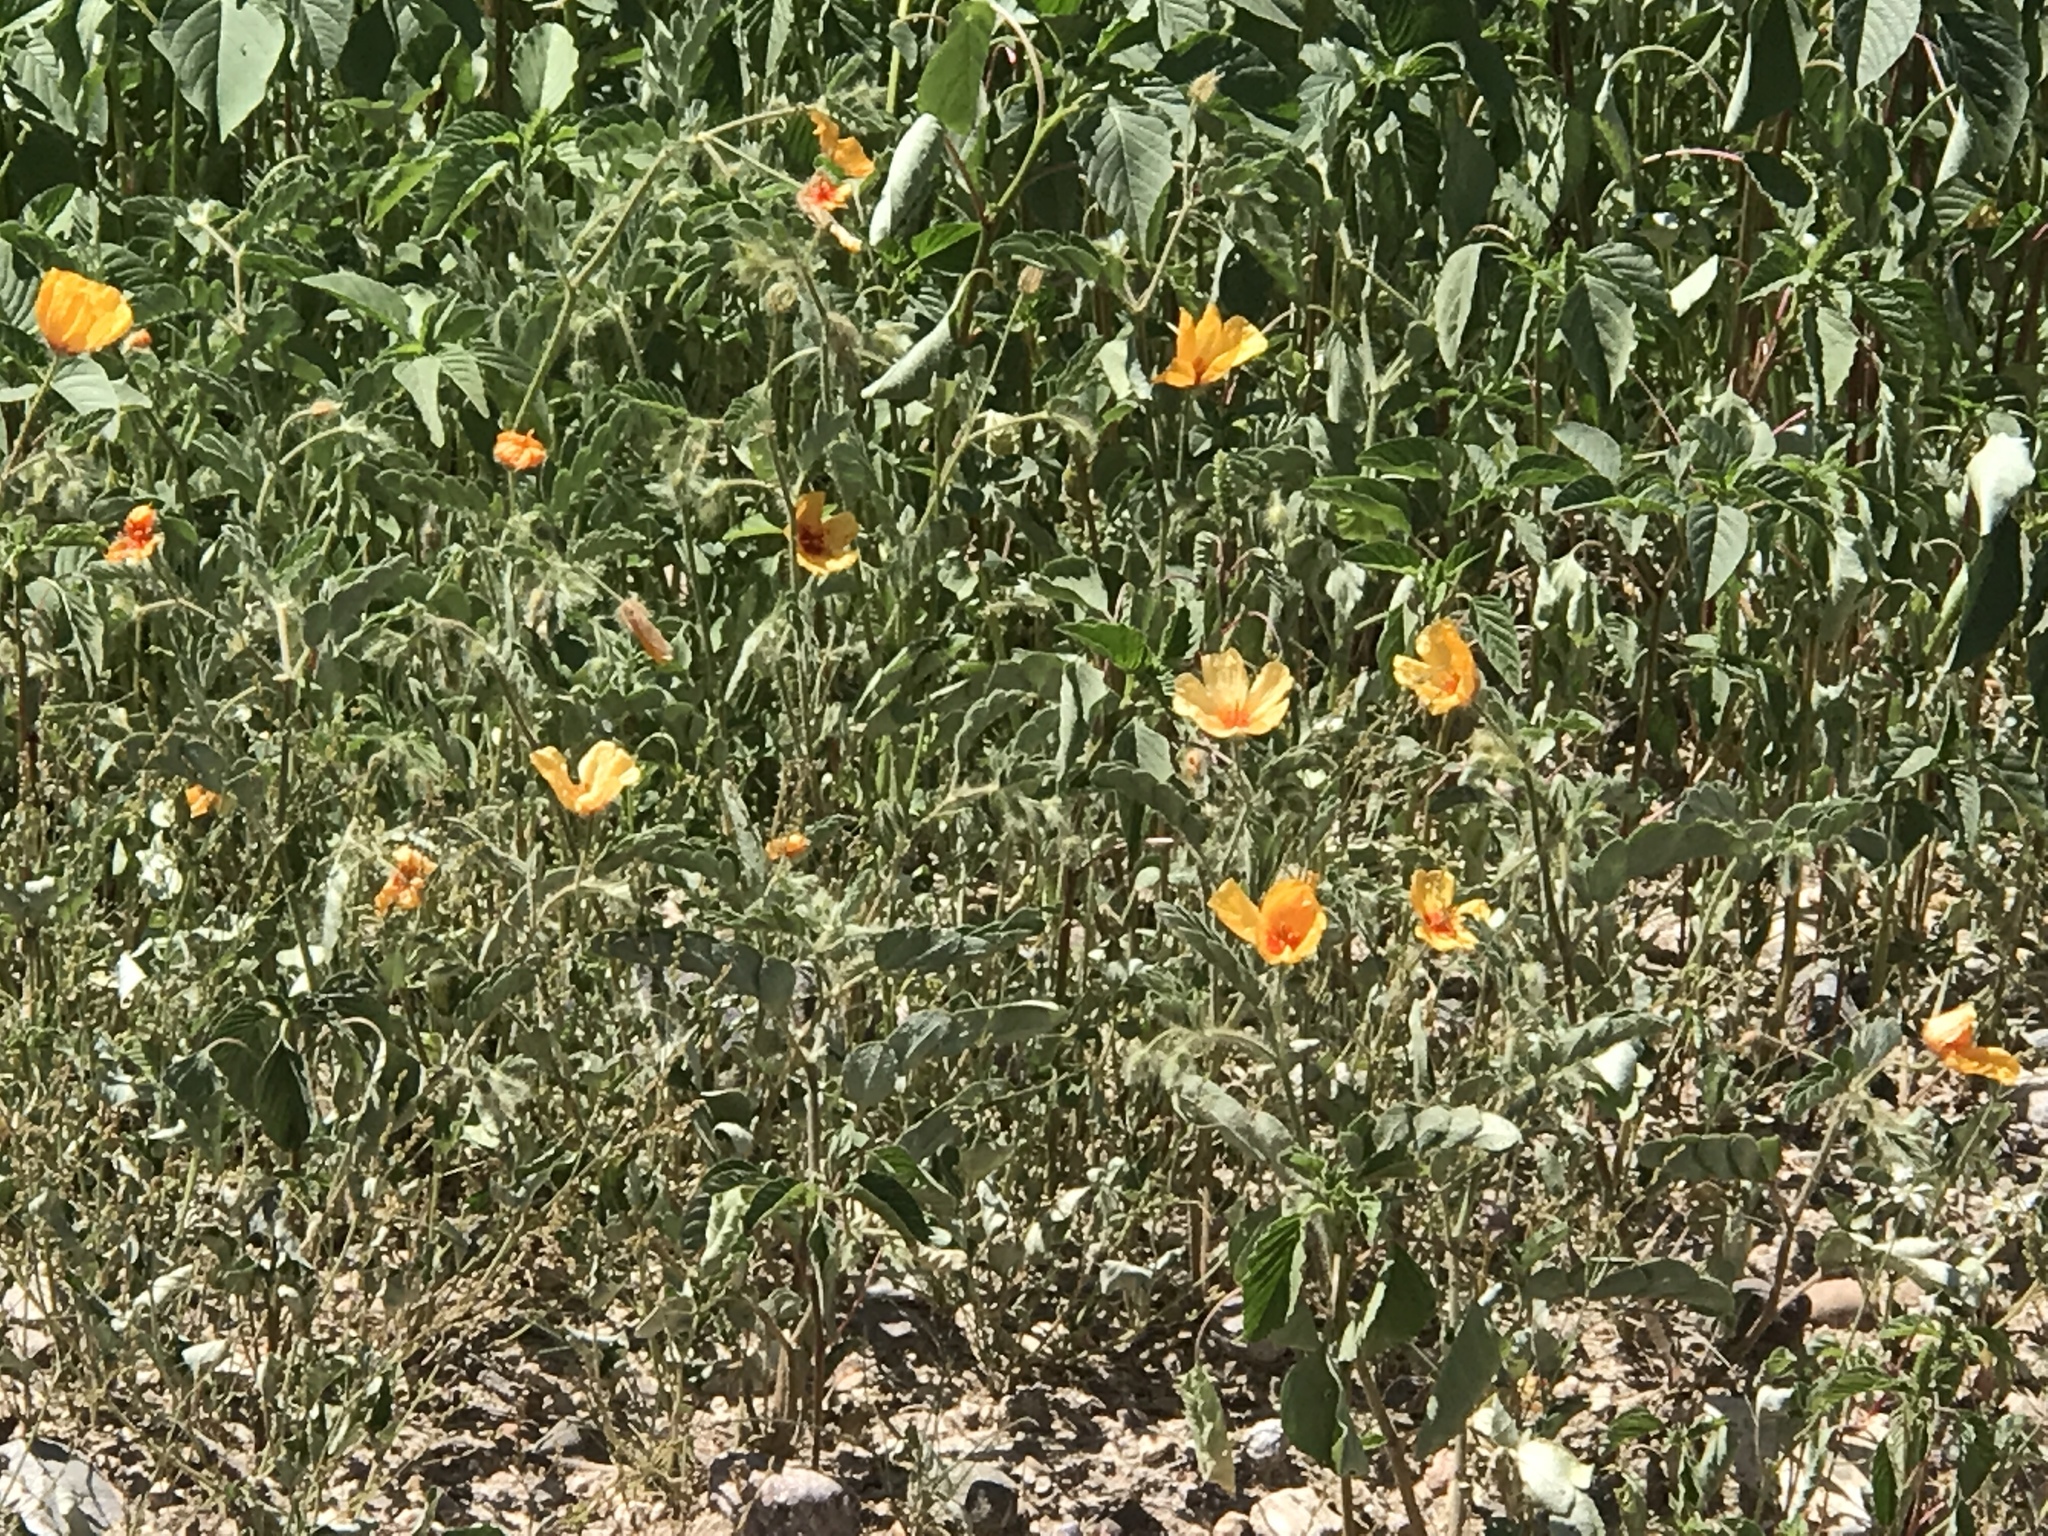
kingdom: Plantae
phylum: Tracheophyta
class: Magnoliopsida
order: Zygophyllales
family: Zygophyllaceae
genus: Kallstroemia
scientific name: Kallstroemia grandiflora
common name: Arizona-poppy
